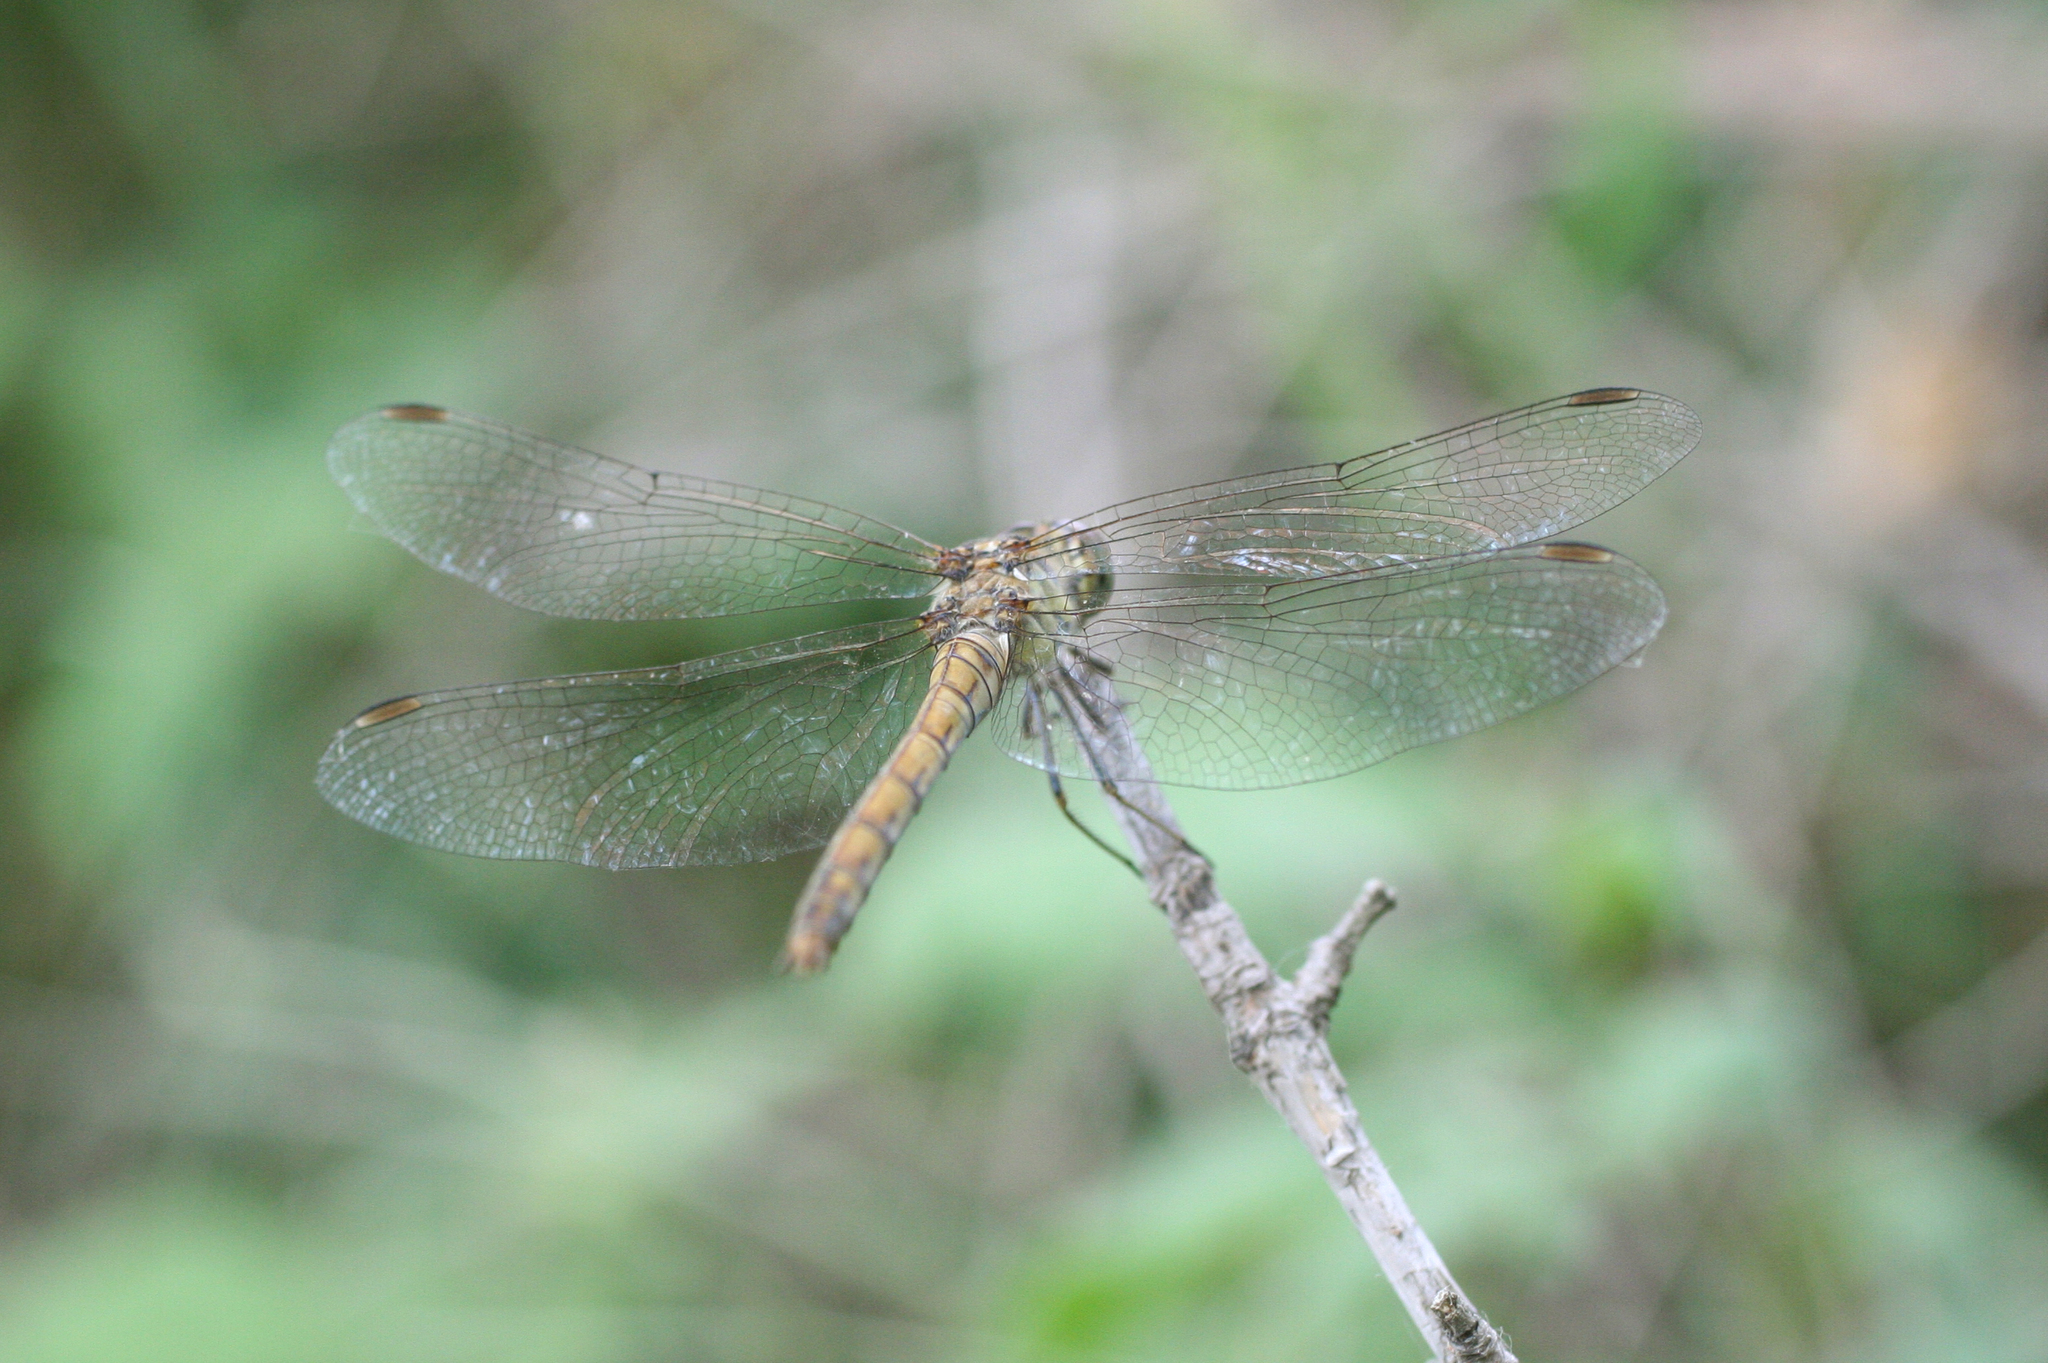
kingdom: Animalia
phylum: Arthropoda
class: Insecta
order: Odonata
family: Libellulidae
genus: Sympetrum
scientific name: Sympetrum striolatum
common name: Common darter
